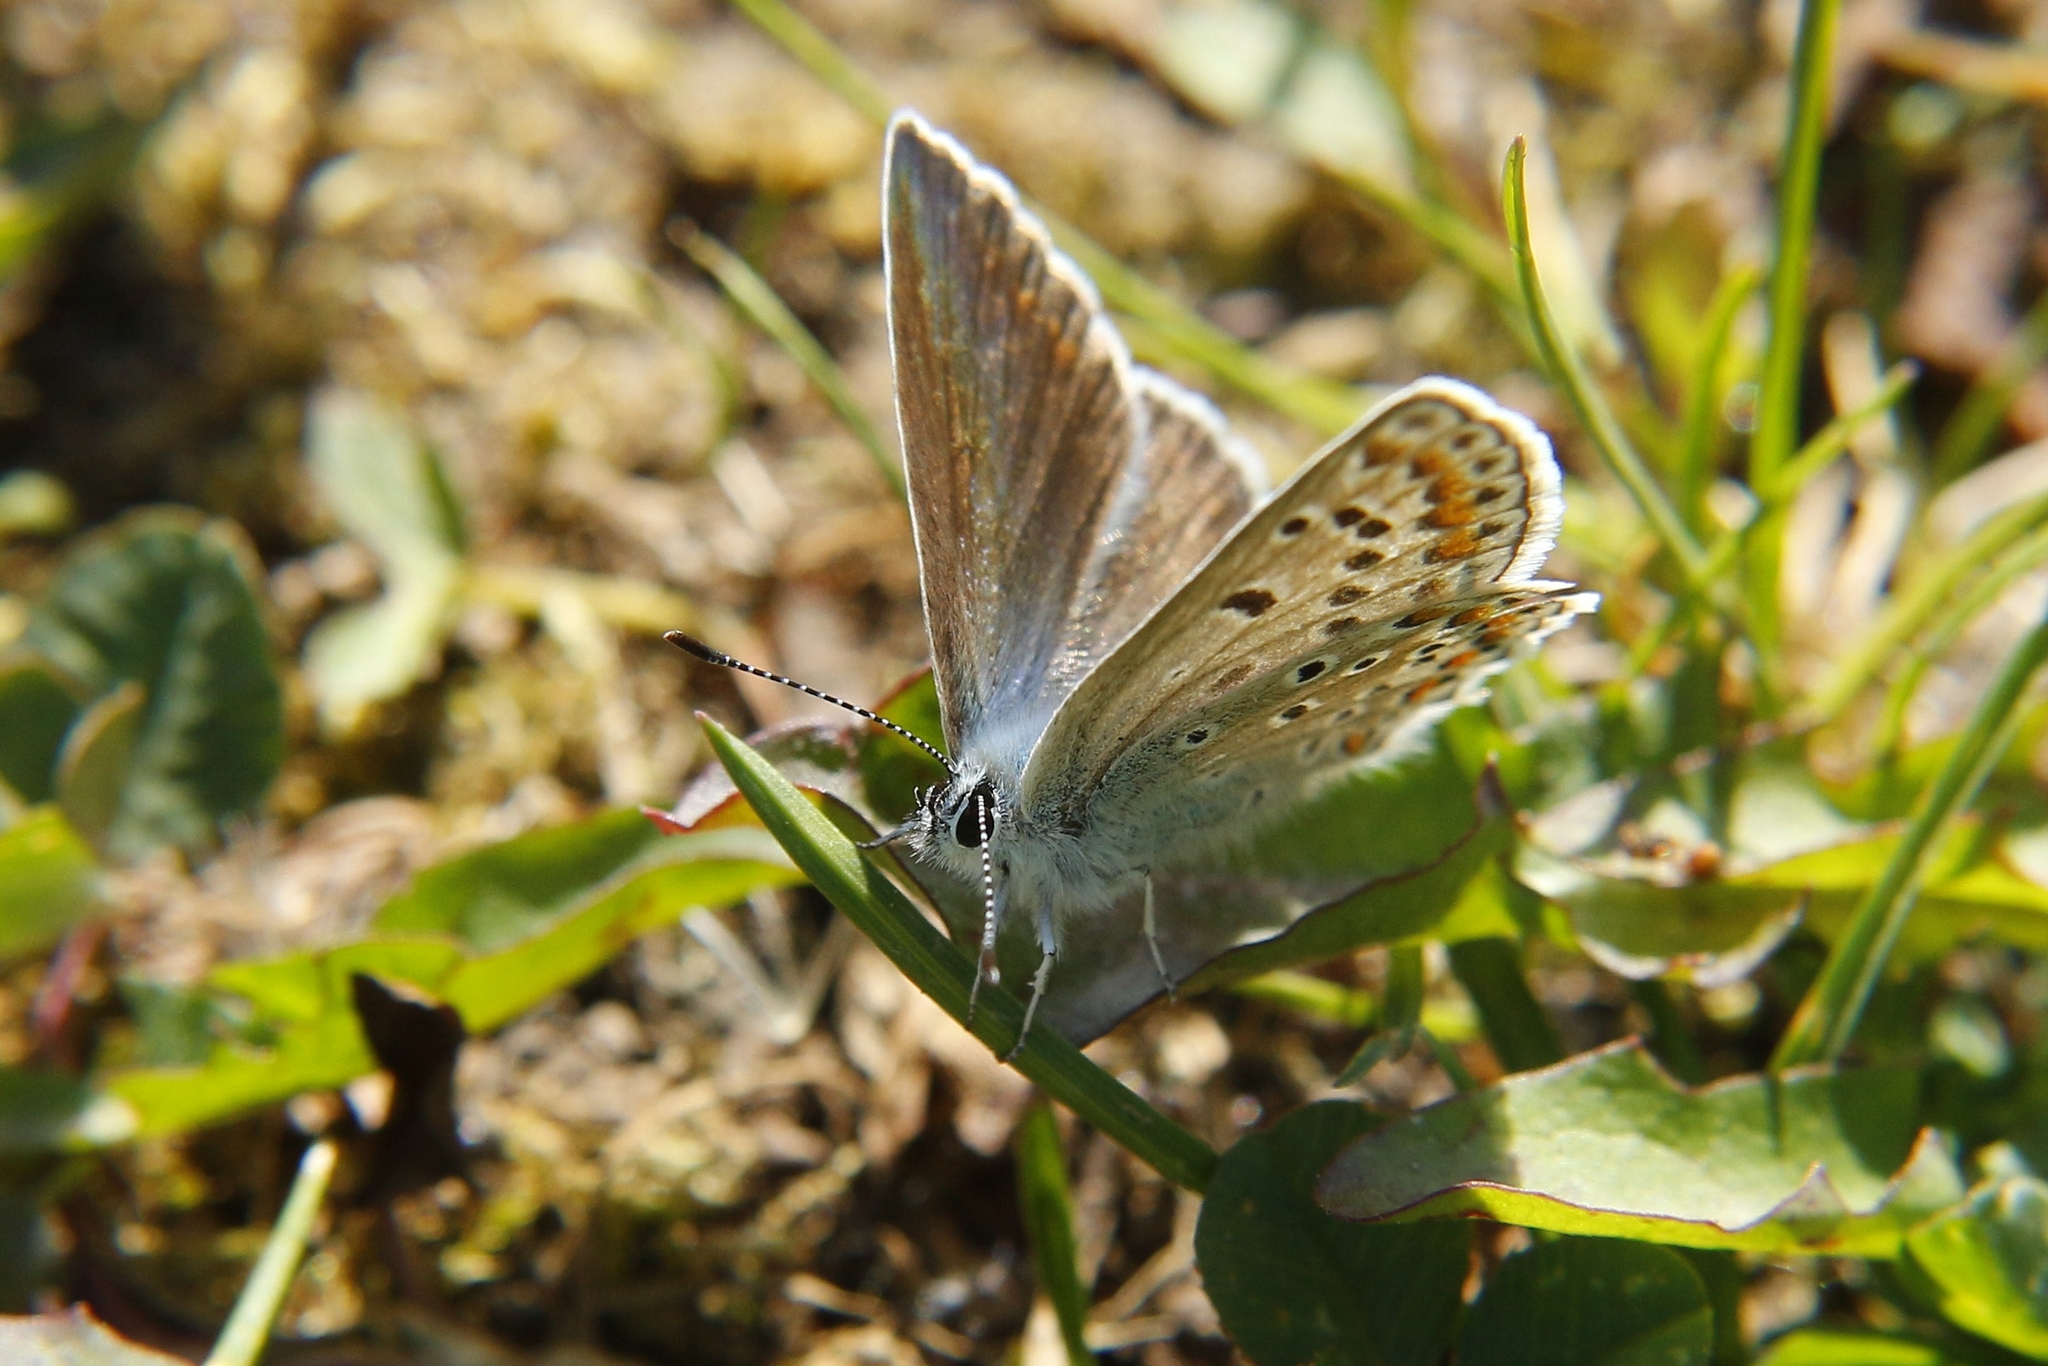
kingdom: Animalia
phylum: Arthropoda
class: Insecta
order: Lepidoptera
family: Lycaenidae
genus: Polyommatus
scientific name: Polyommatus icarus
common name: Common blue
